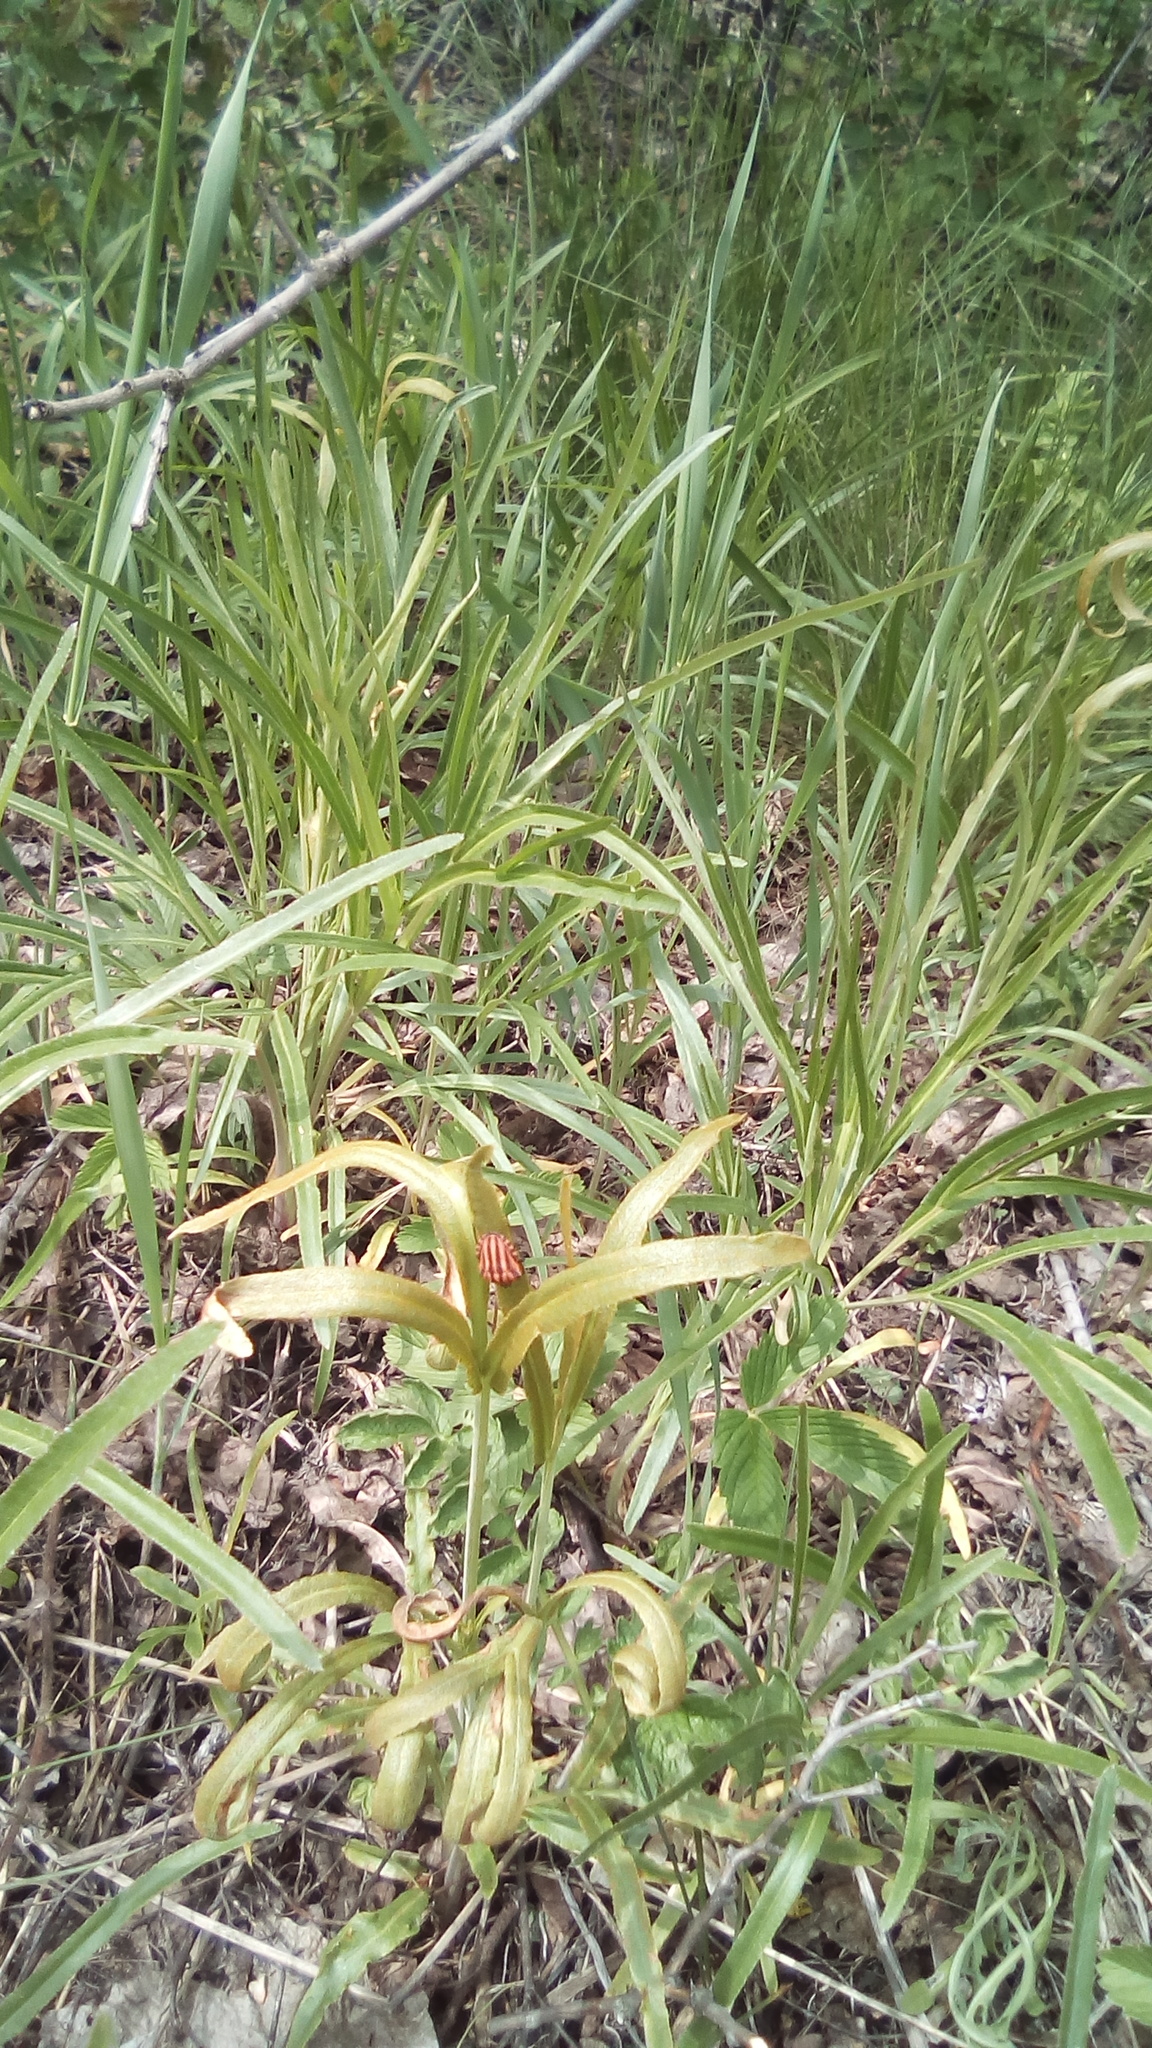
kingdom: Plantae
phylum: Tracheophyta
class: Magnoliopsida
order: Apiales
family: Apiaceae
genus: Falcaria
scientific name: Falcaria vulgaris
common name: Longleaf
